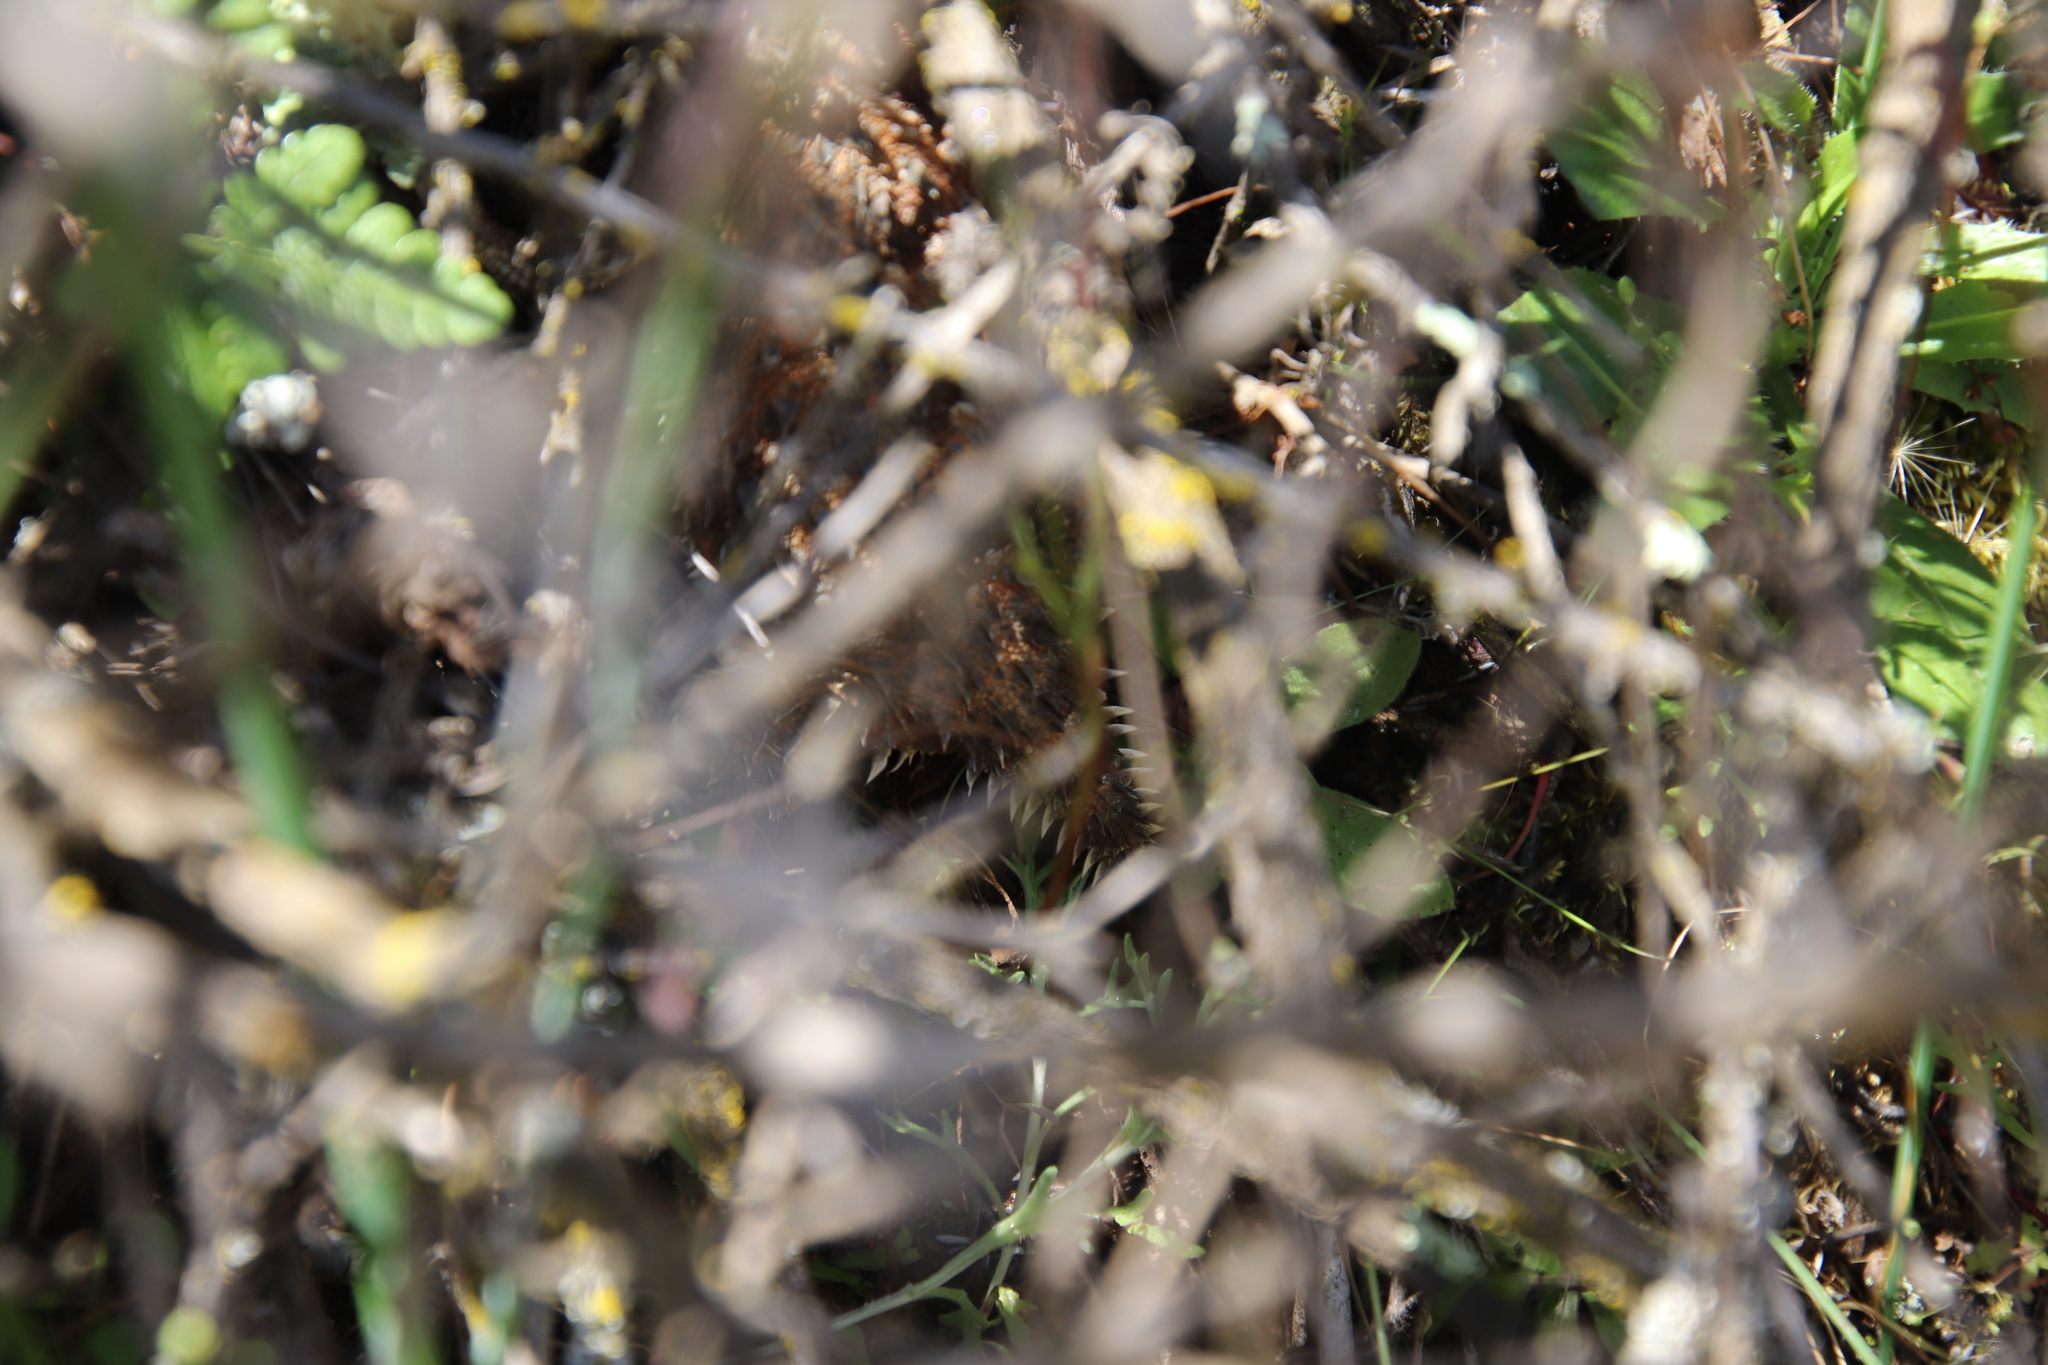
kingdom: Animalia
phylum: Chordata
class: Squamata
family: Phrynosomatidae
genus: Phrynosoma
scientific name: Phrynosoma blainvillii
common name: San diego horned lizard
